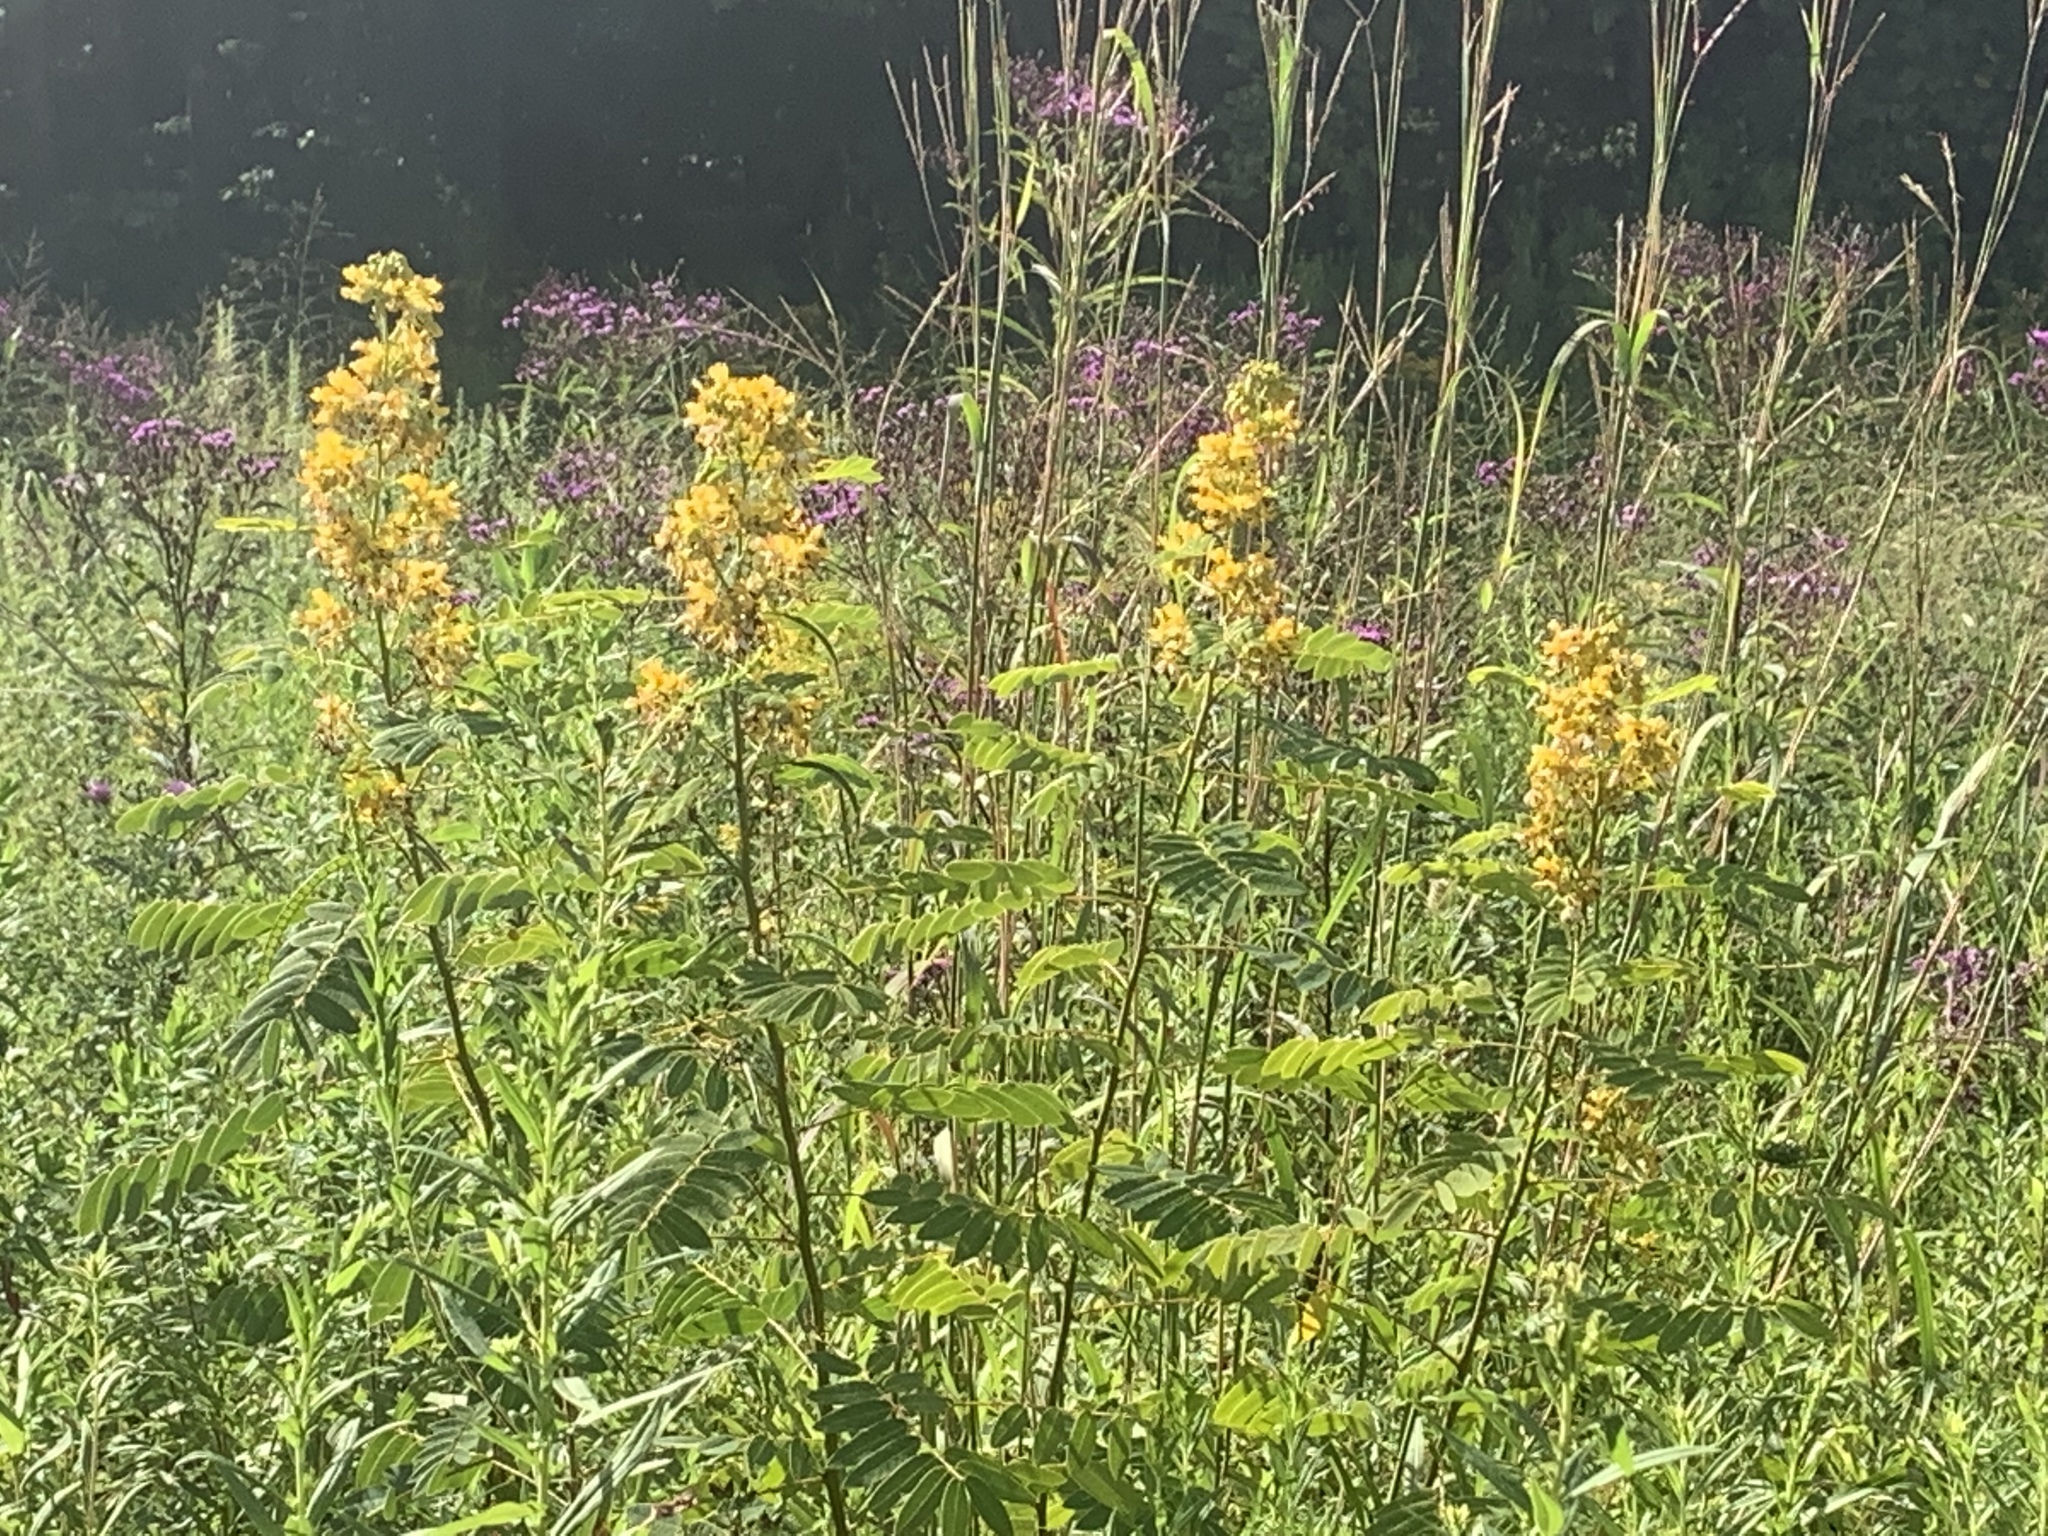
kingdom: Plantae
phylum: Tracheophyta
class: Magnoliopsida
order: Fabales
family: Fabaceae
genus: Senna
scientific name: Senna hebecarpa
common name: Wild senna
